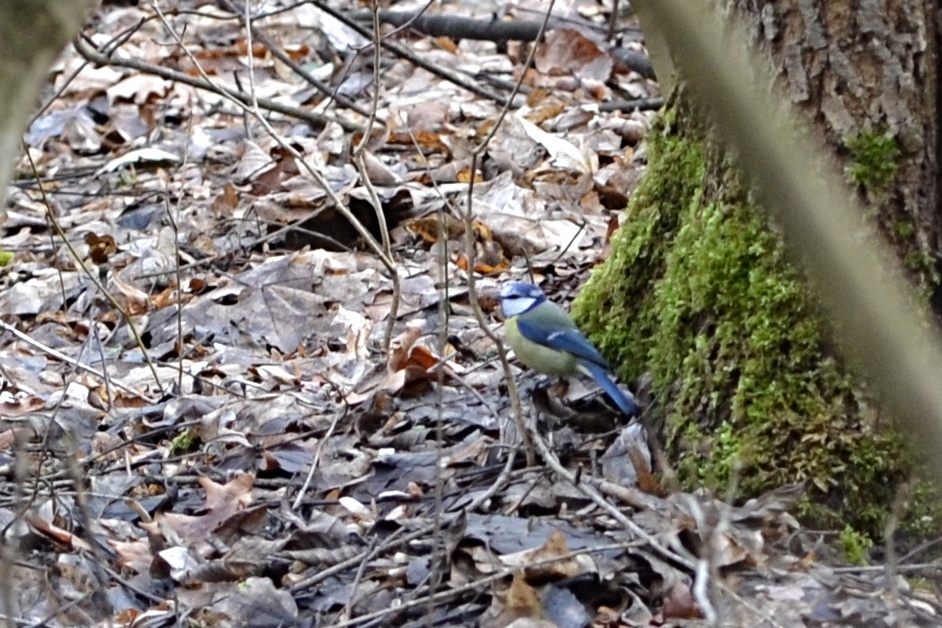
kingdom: Animalia
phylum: Chordata
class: Aves
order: Passeriformes
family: Paridae
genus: Cyanistes
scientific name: Cyanistes caeruleus
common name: Eurasian blue tit
